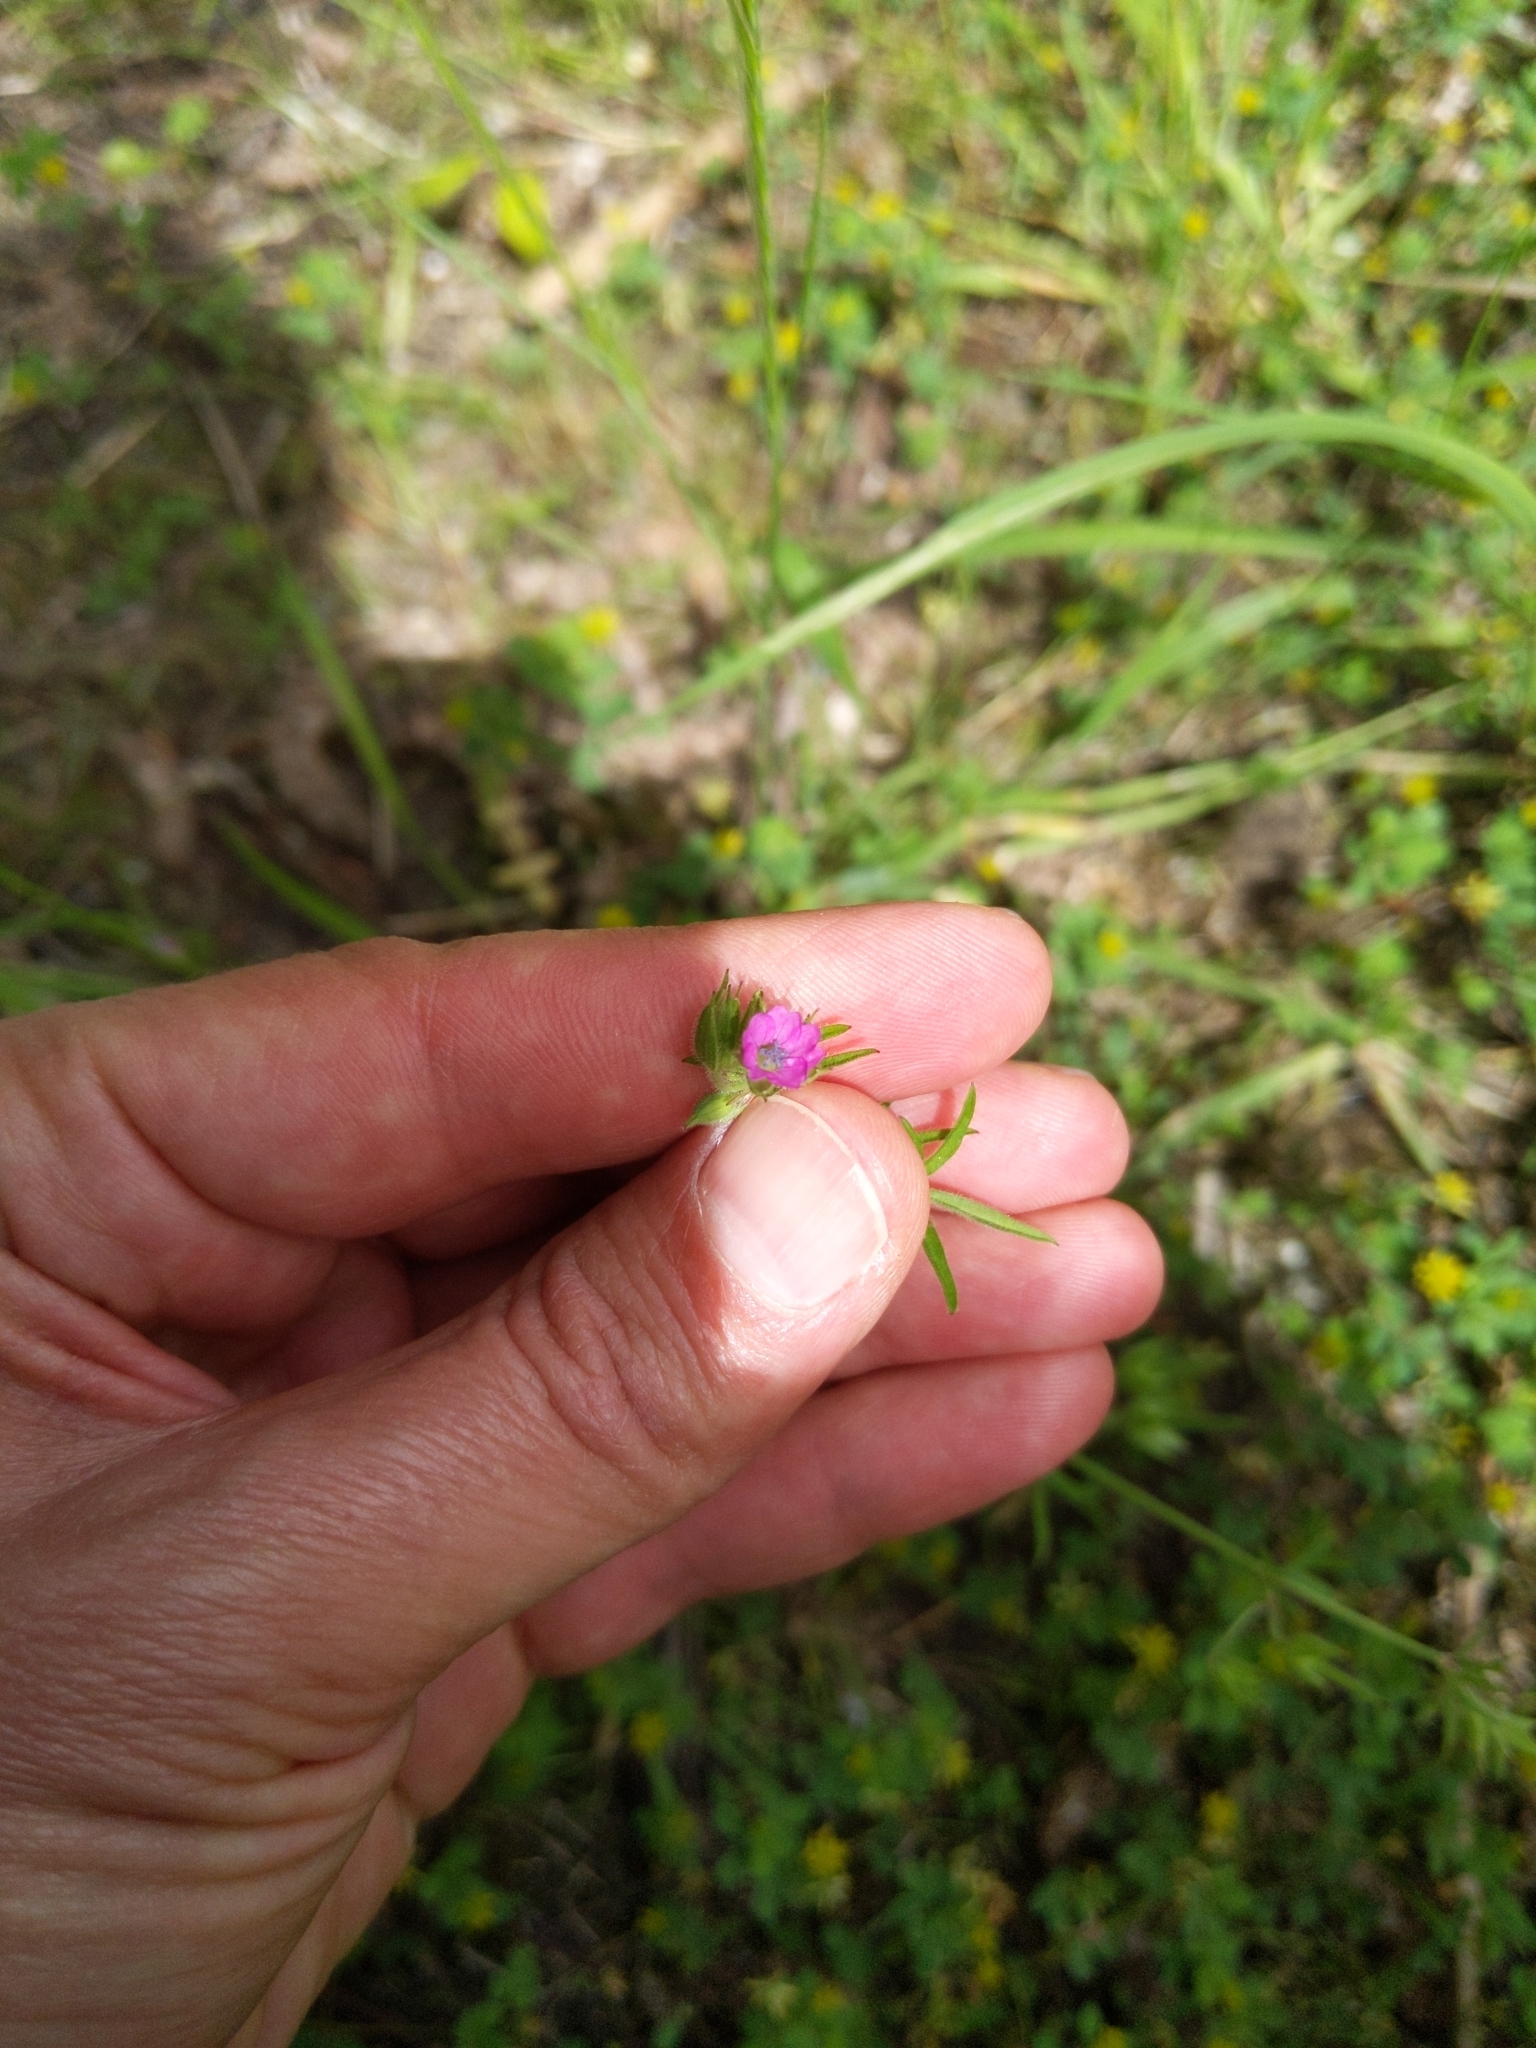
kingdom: Plantae
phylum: Tracheophyta
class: Magnoliopsida
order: Geraniales
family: Geraniaceae
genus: Geranium
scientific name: Geranium dissectum
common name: Cut-leaved crane's-bill
